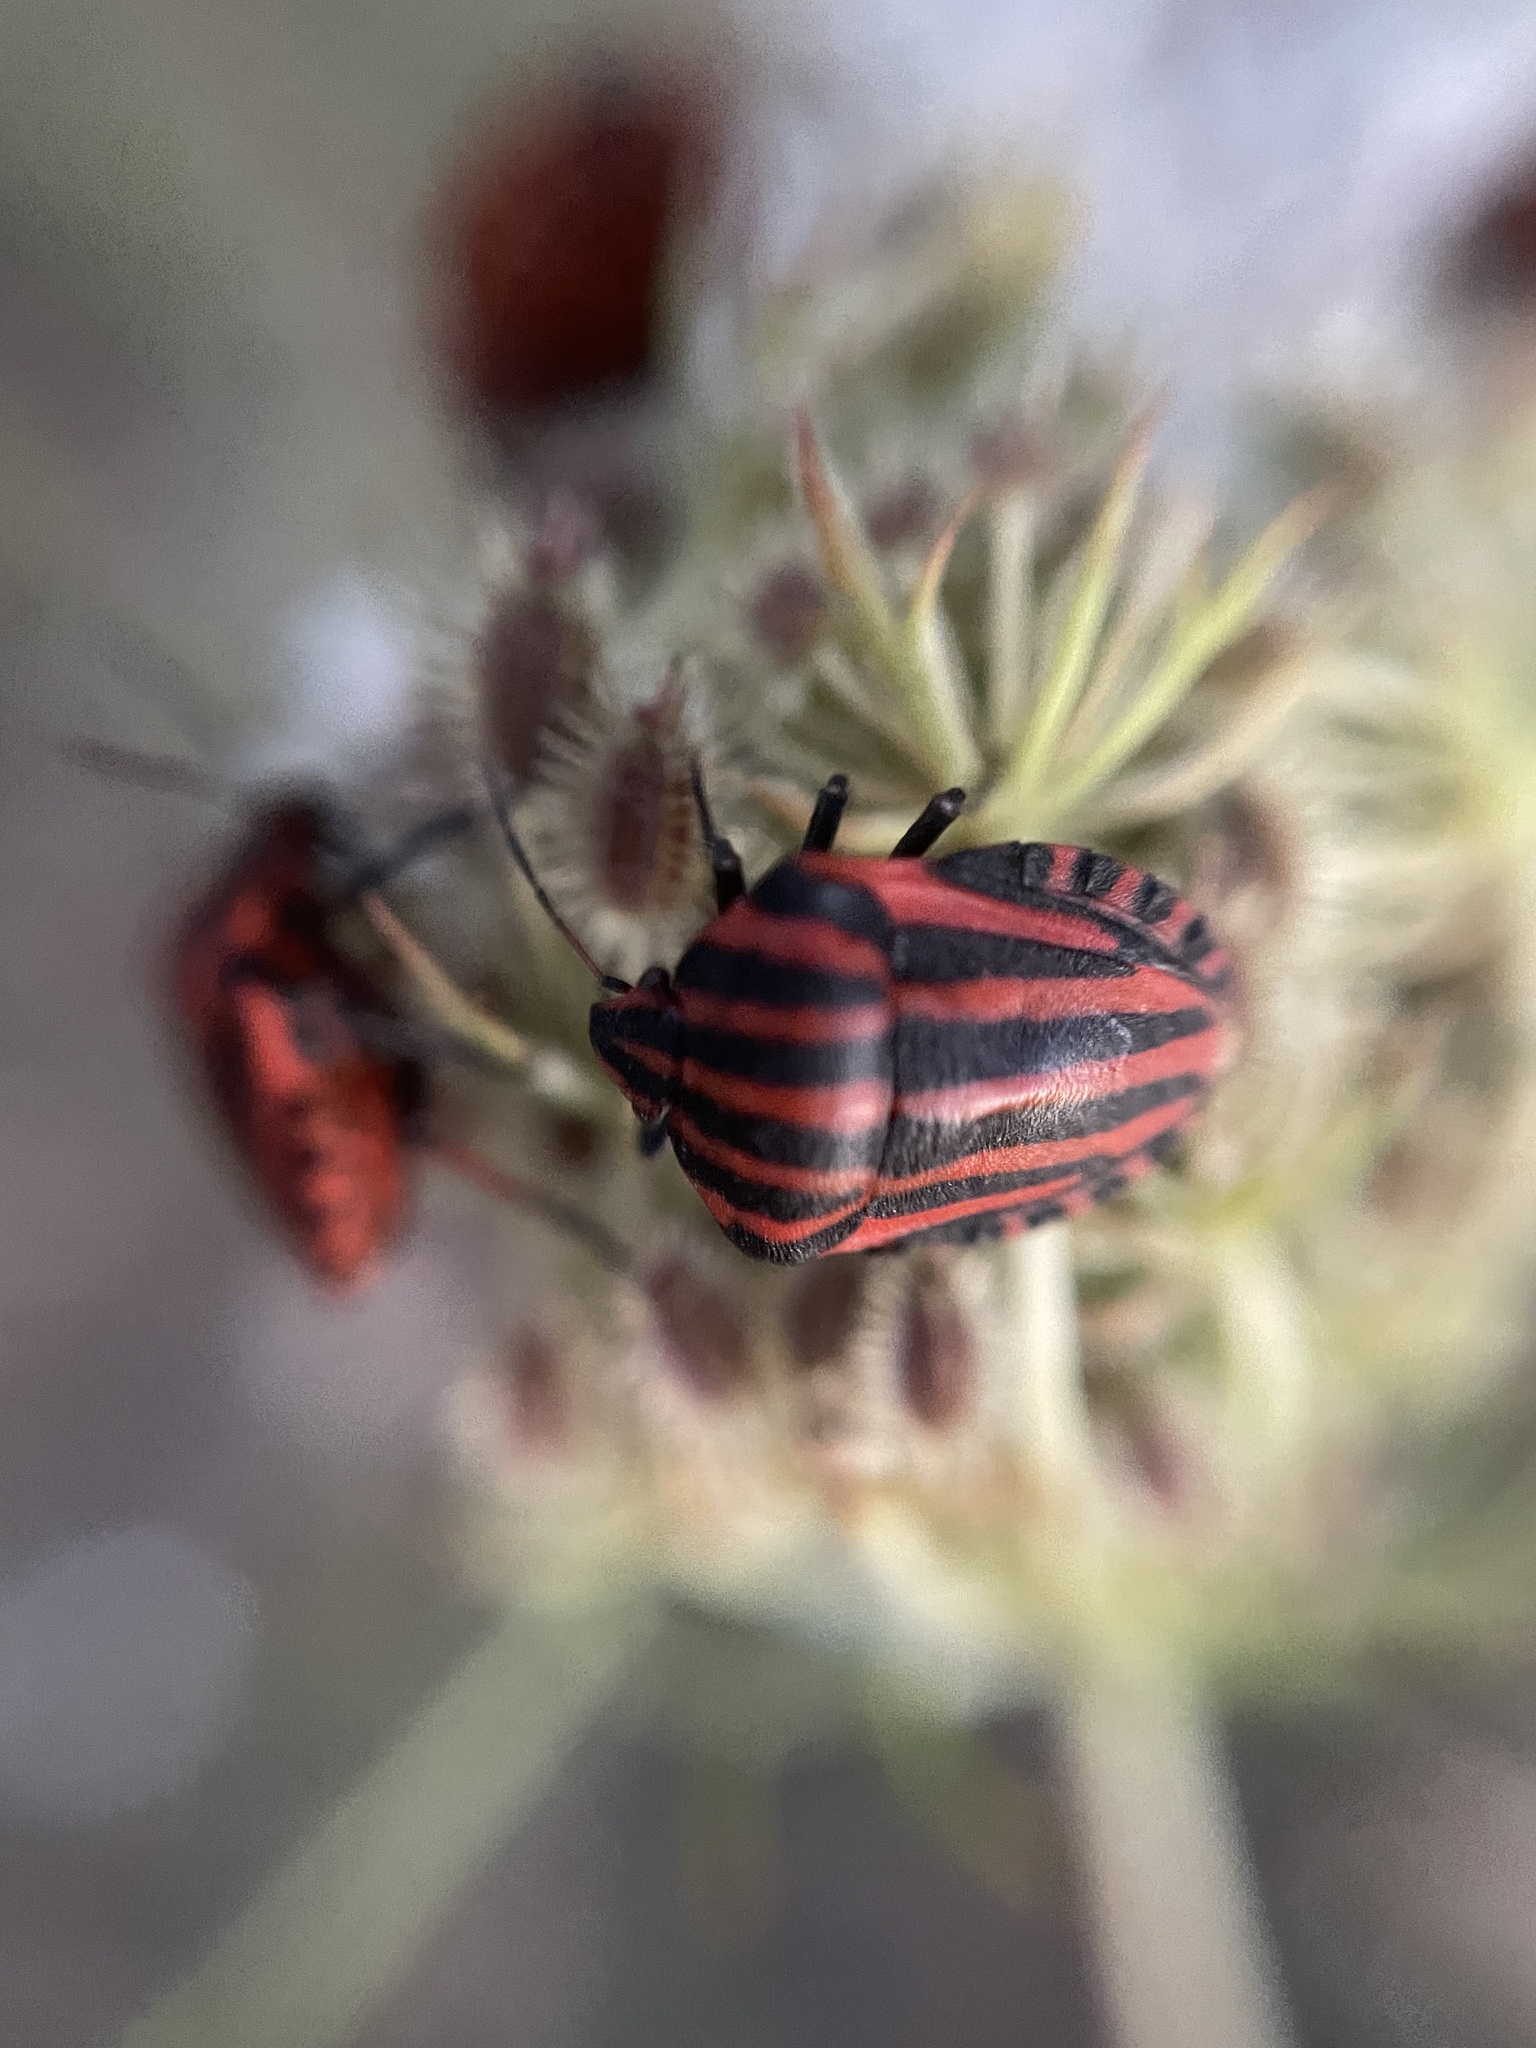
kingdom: Animalia
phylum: Arthropoda
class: Insecta
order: Hemiptera
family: Pentatomidae
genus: Graphosoma
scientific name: Graphosoma italicum
